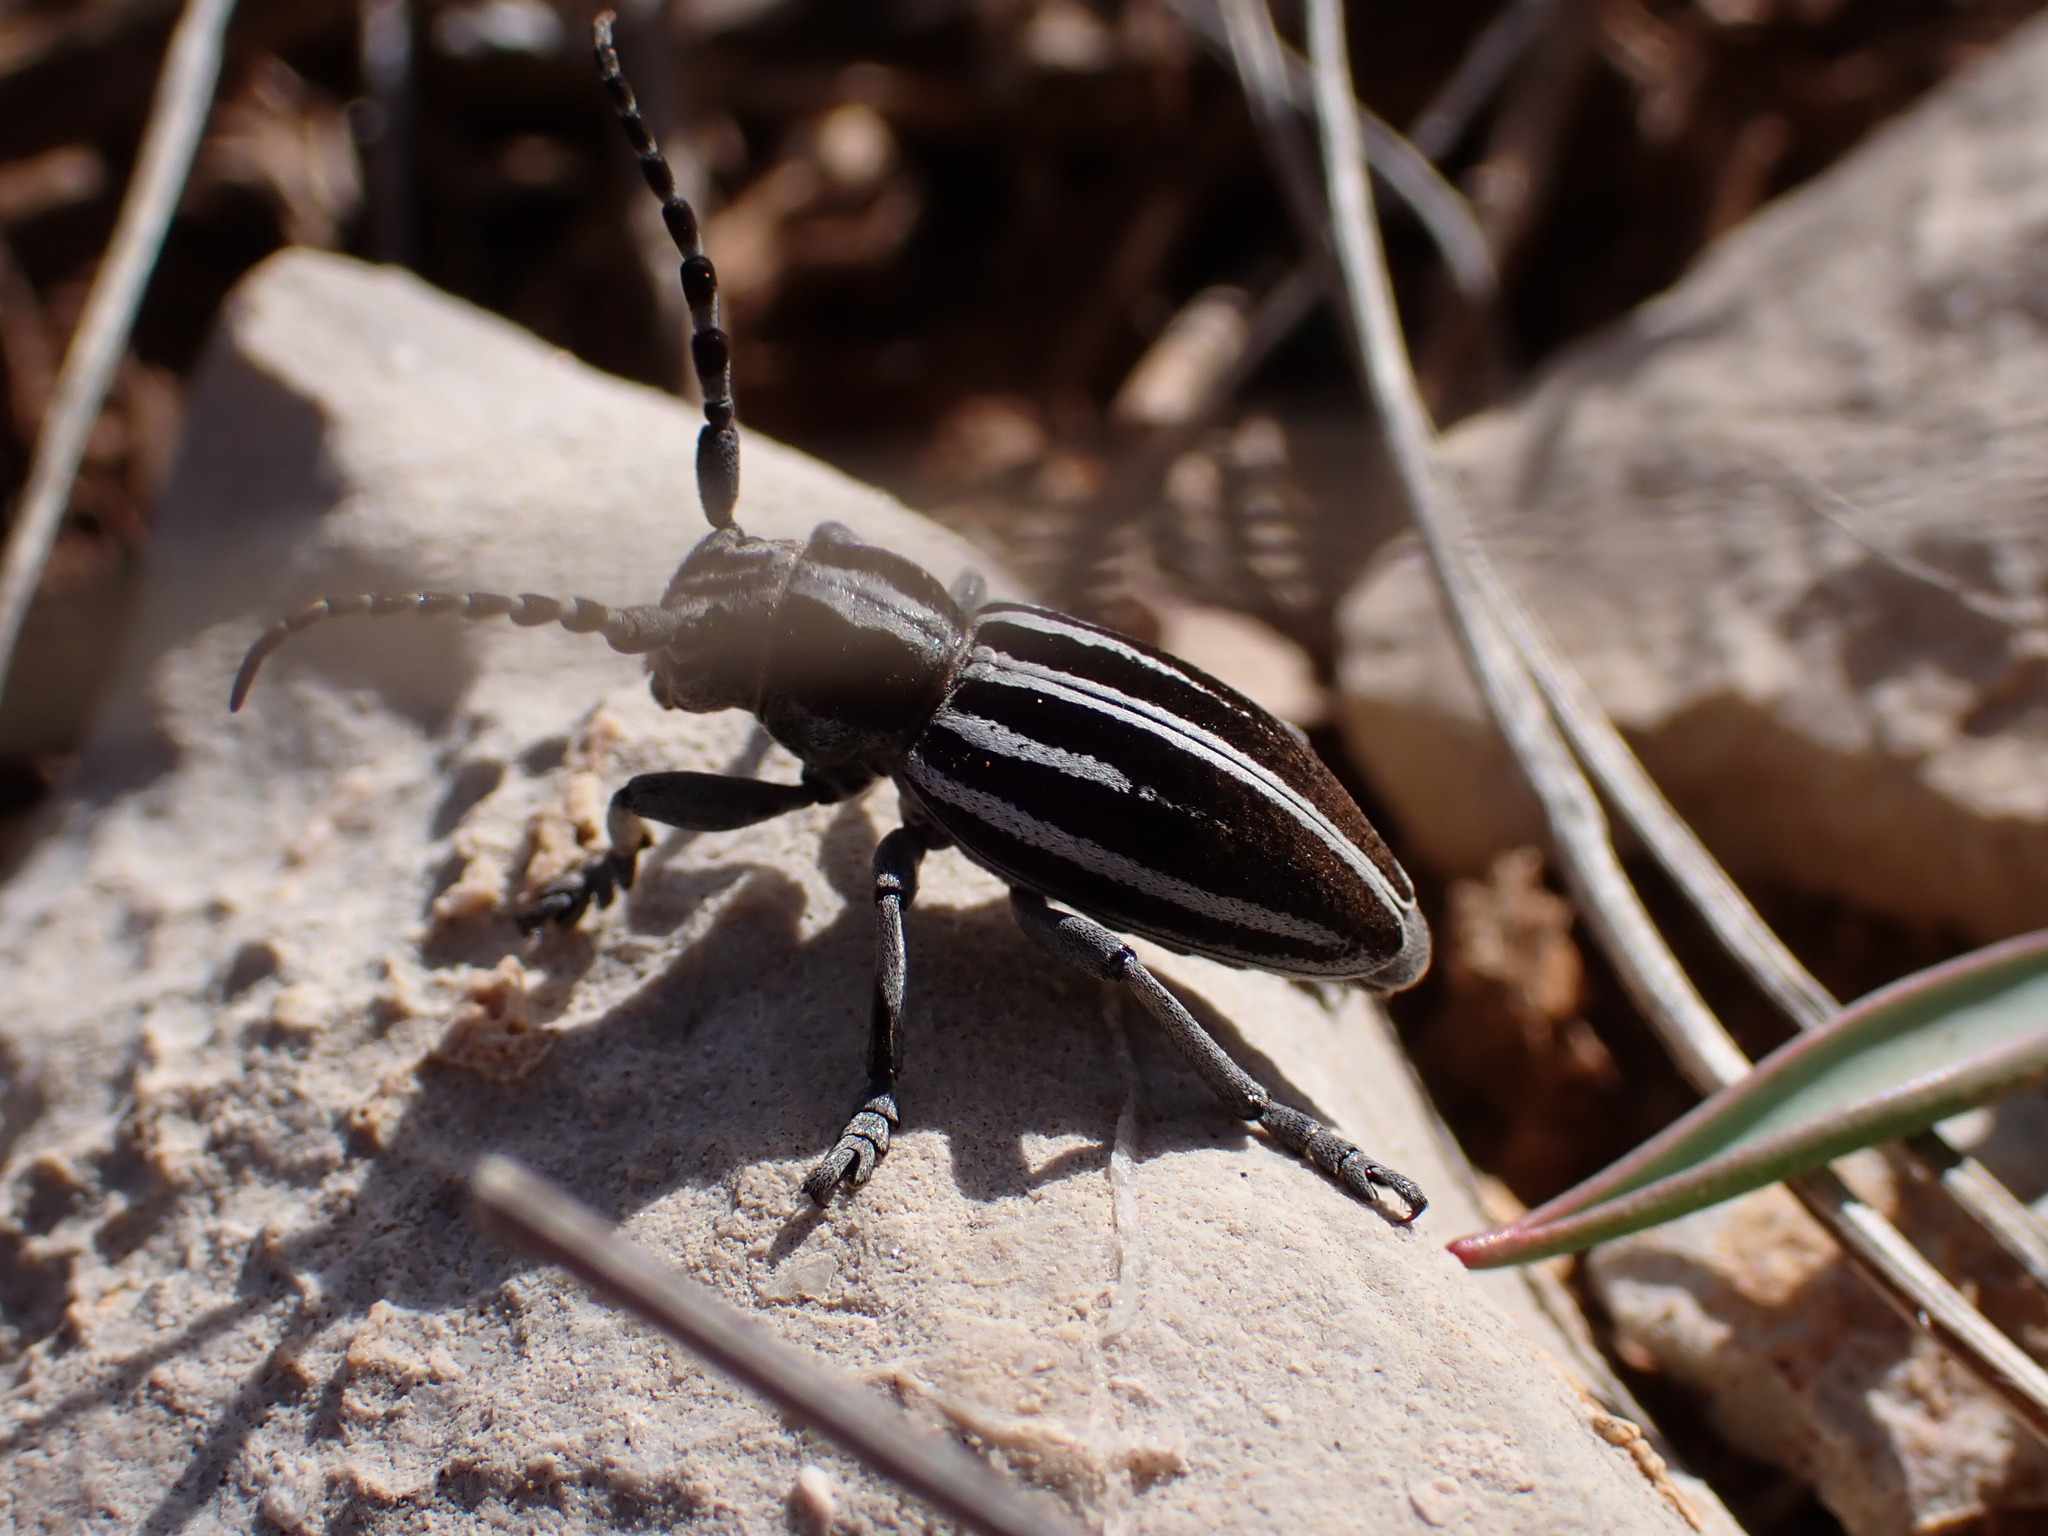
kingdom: Animalia
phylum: Arthropoda
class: Insecta
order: Coleoptera
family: Cerambycidae
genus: Iberodorcadion
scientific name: Iberodorcadion molitor
